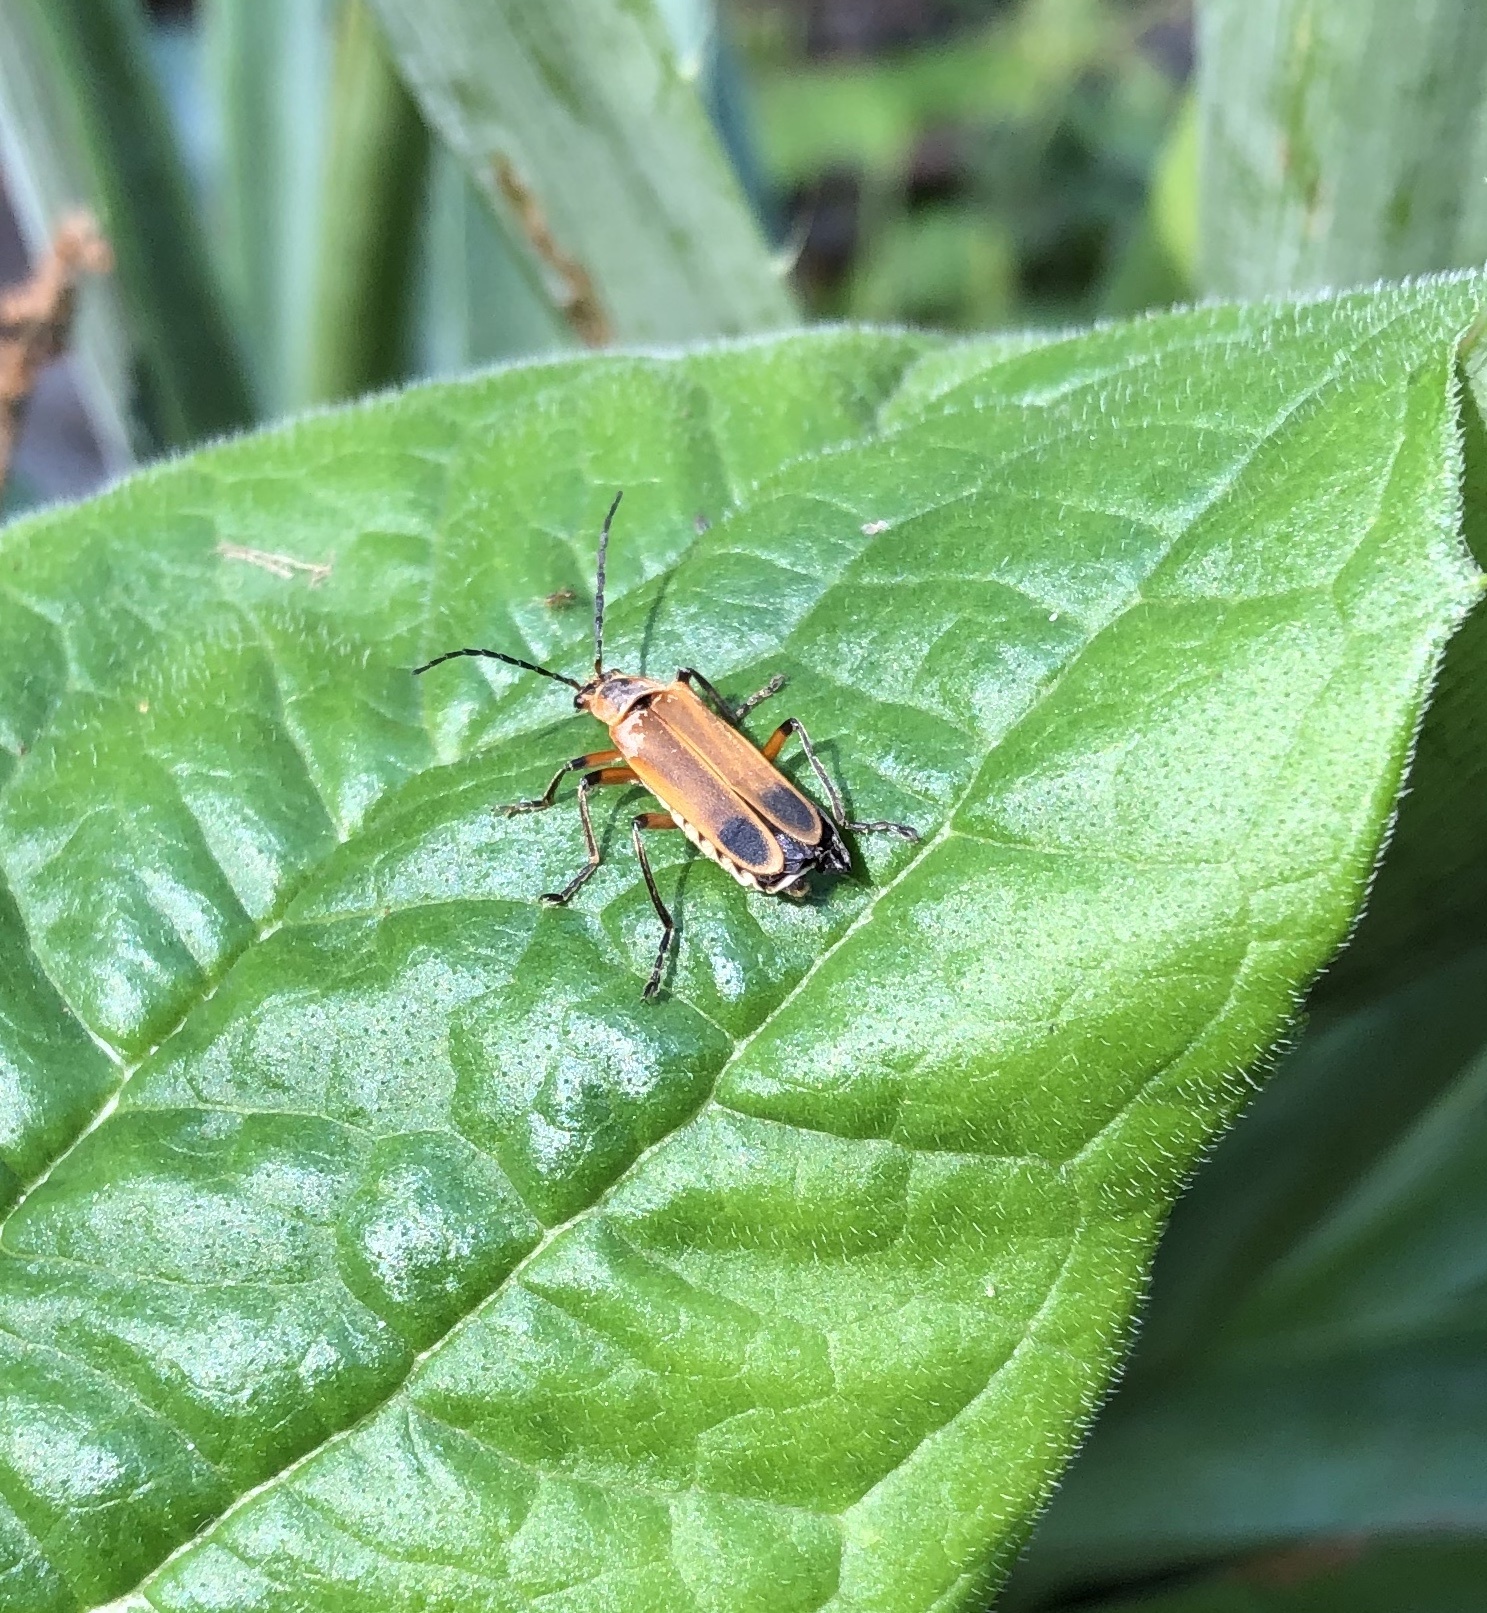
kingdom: Animalia
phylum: Arthropoda
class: Insecta
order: Coleoptera
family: Cantharidae
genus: Chauliognathus
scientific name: Chauliognathus marginatus
